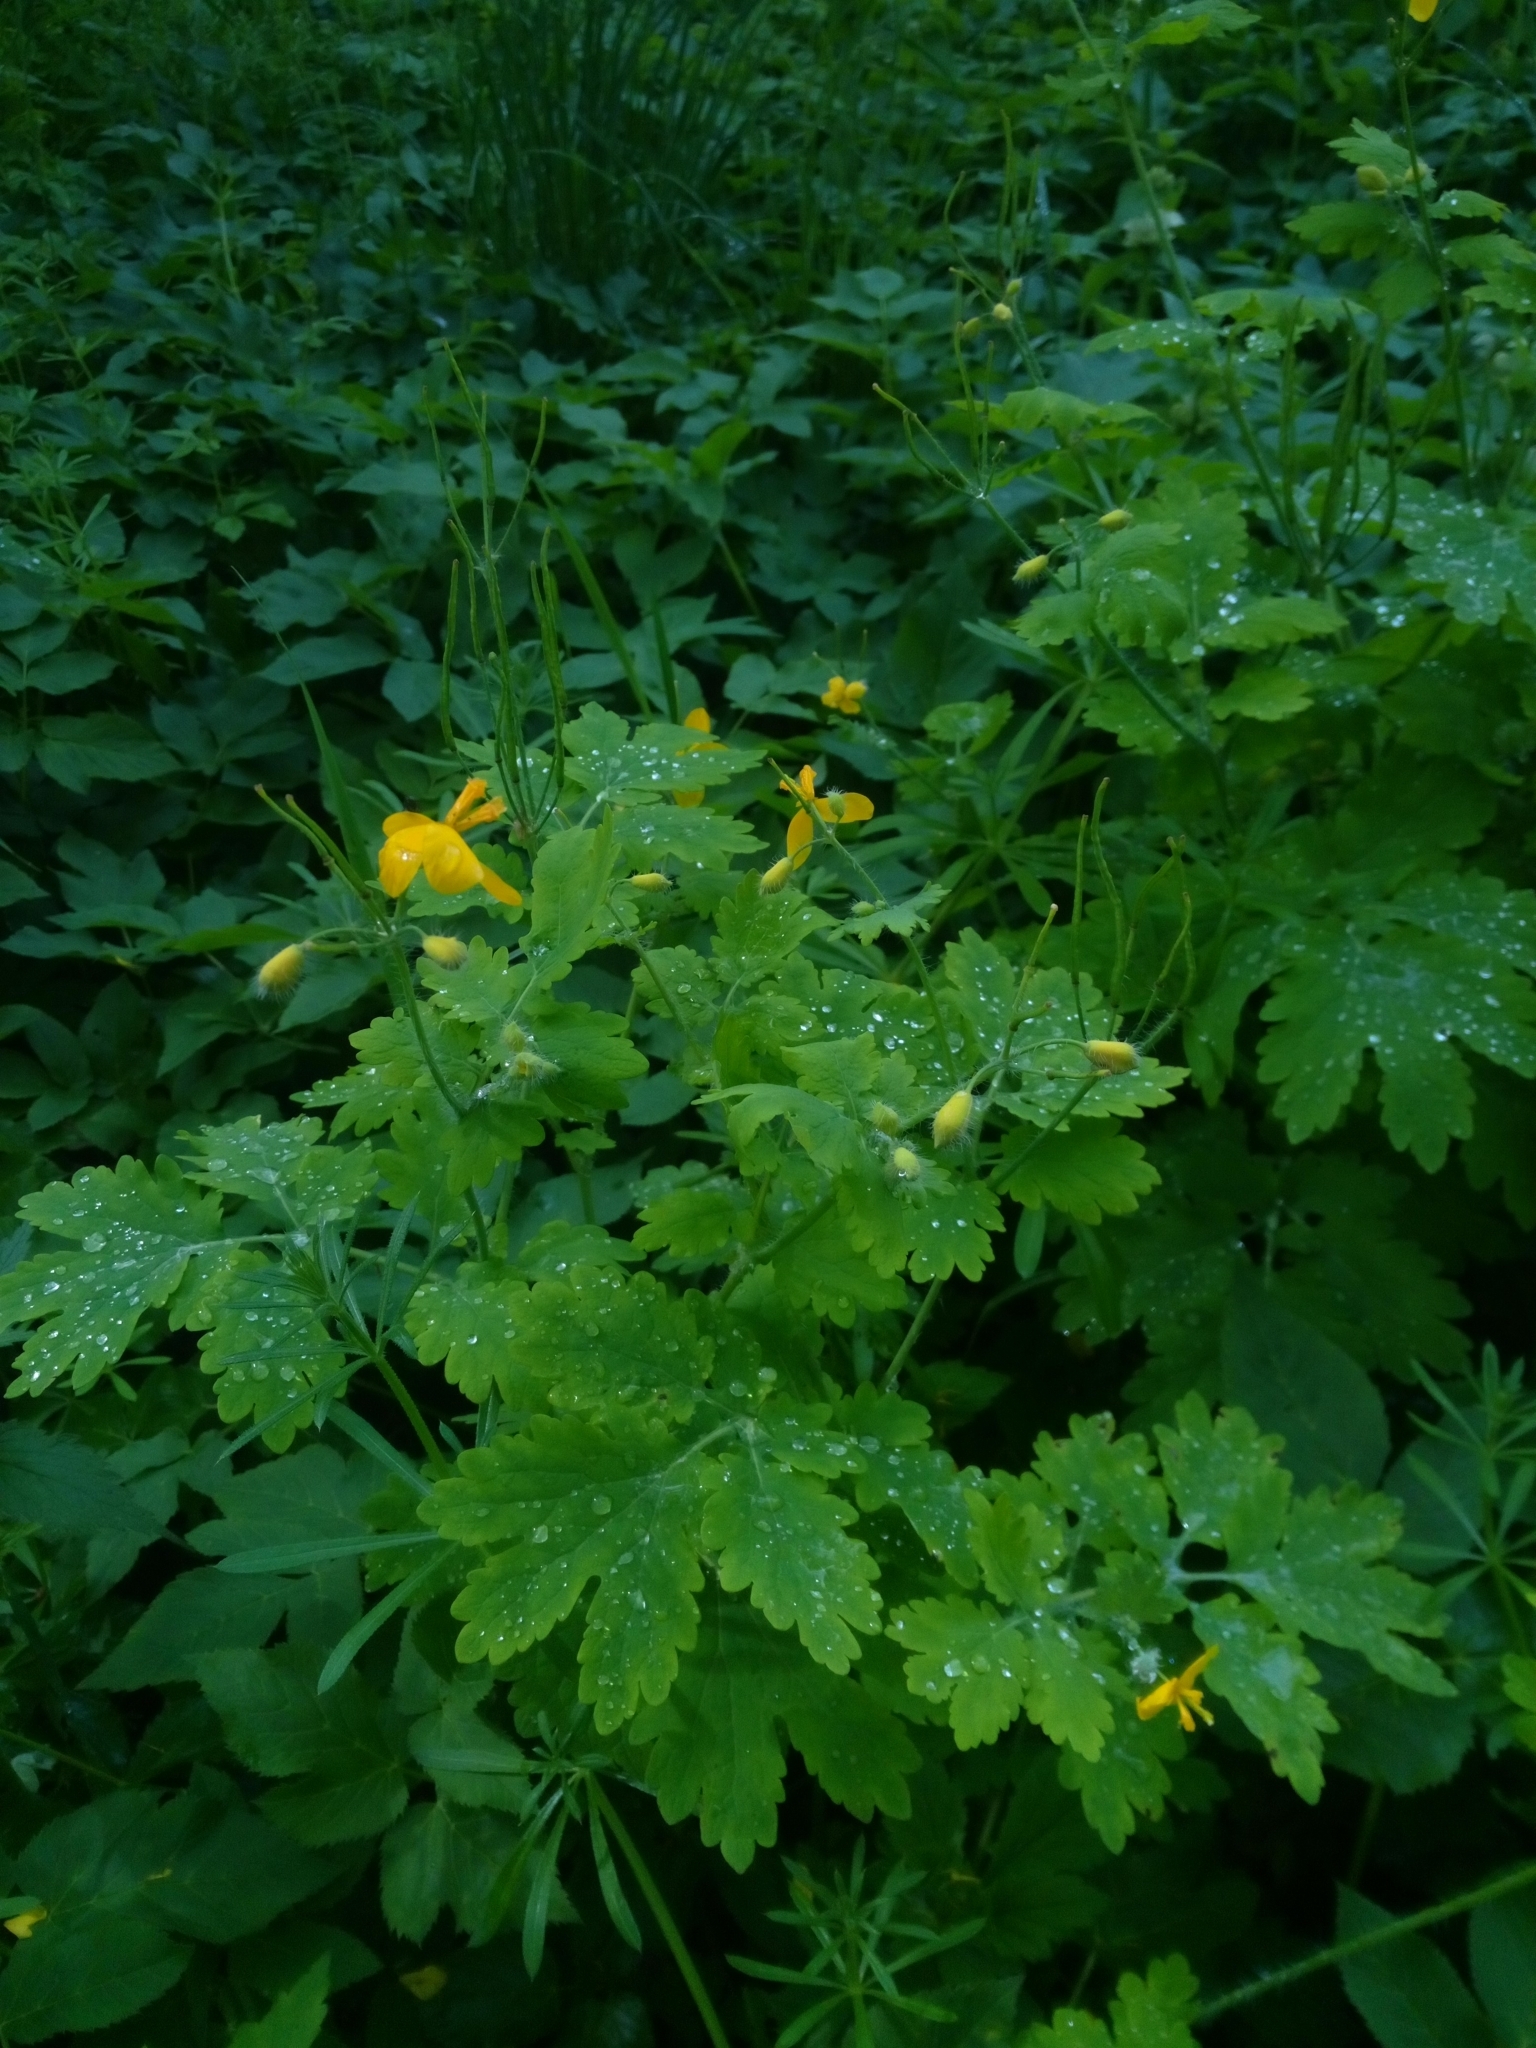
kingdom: Plantae
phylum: Tracheophyta
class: Magnoliopsida
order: Ranunculales
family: Papaveraceae
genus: Chelidonium
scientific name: Chelidonium majus
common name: Greater celandine
